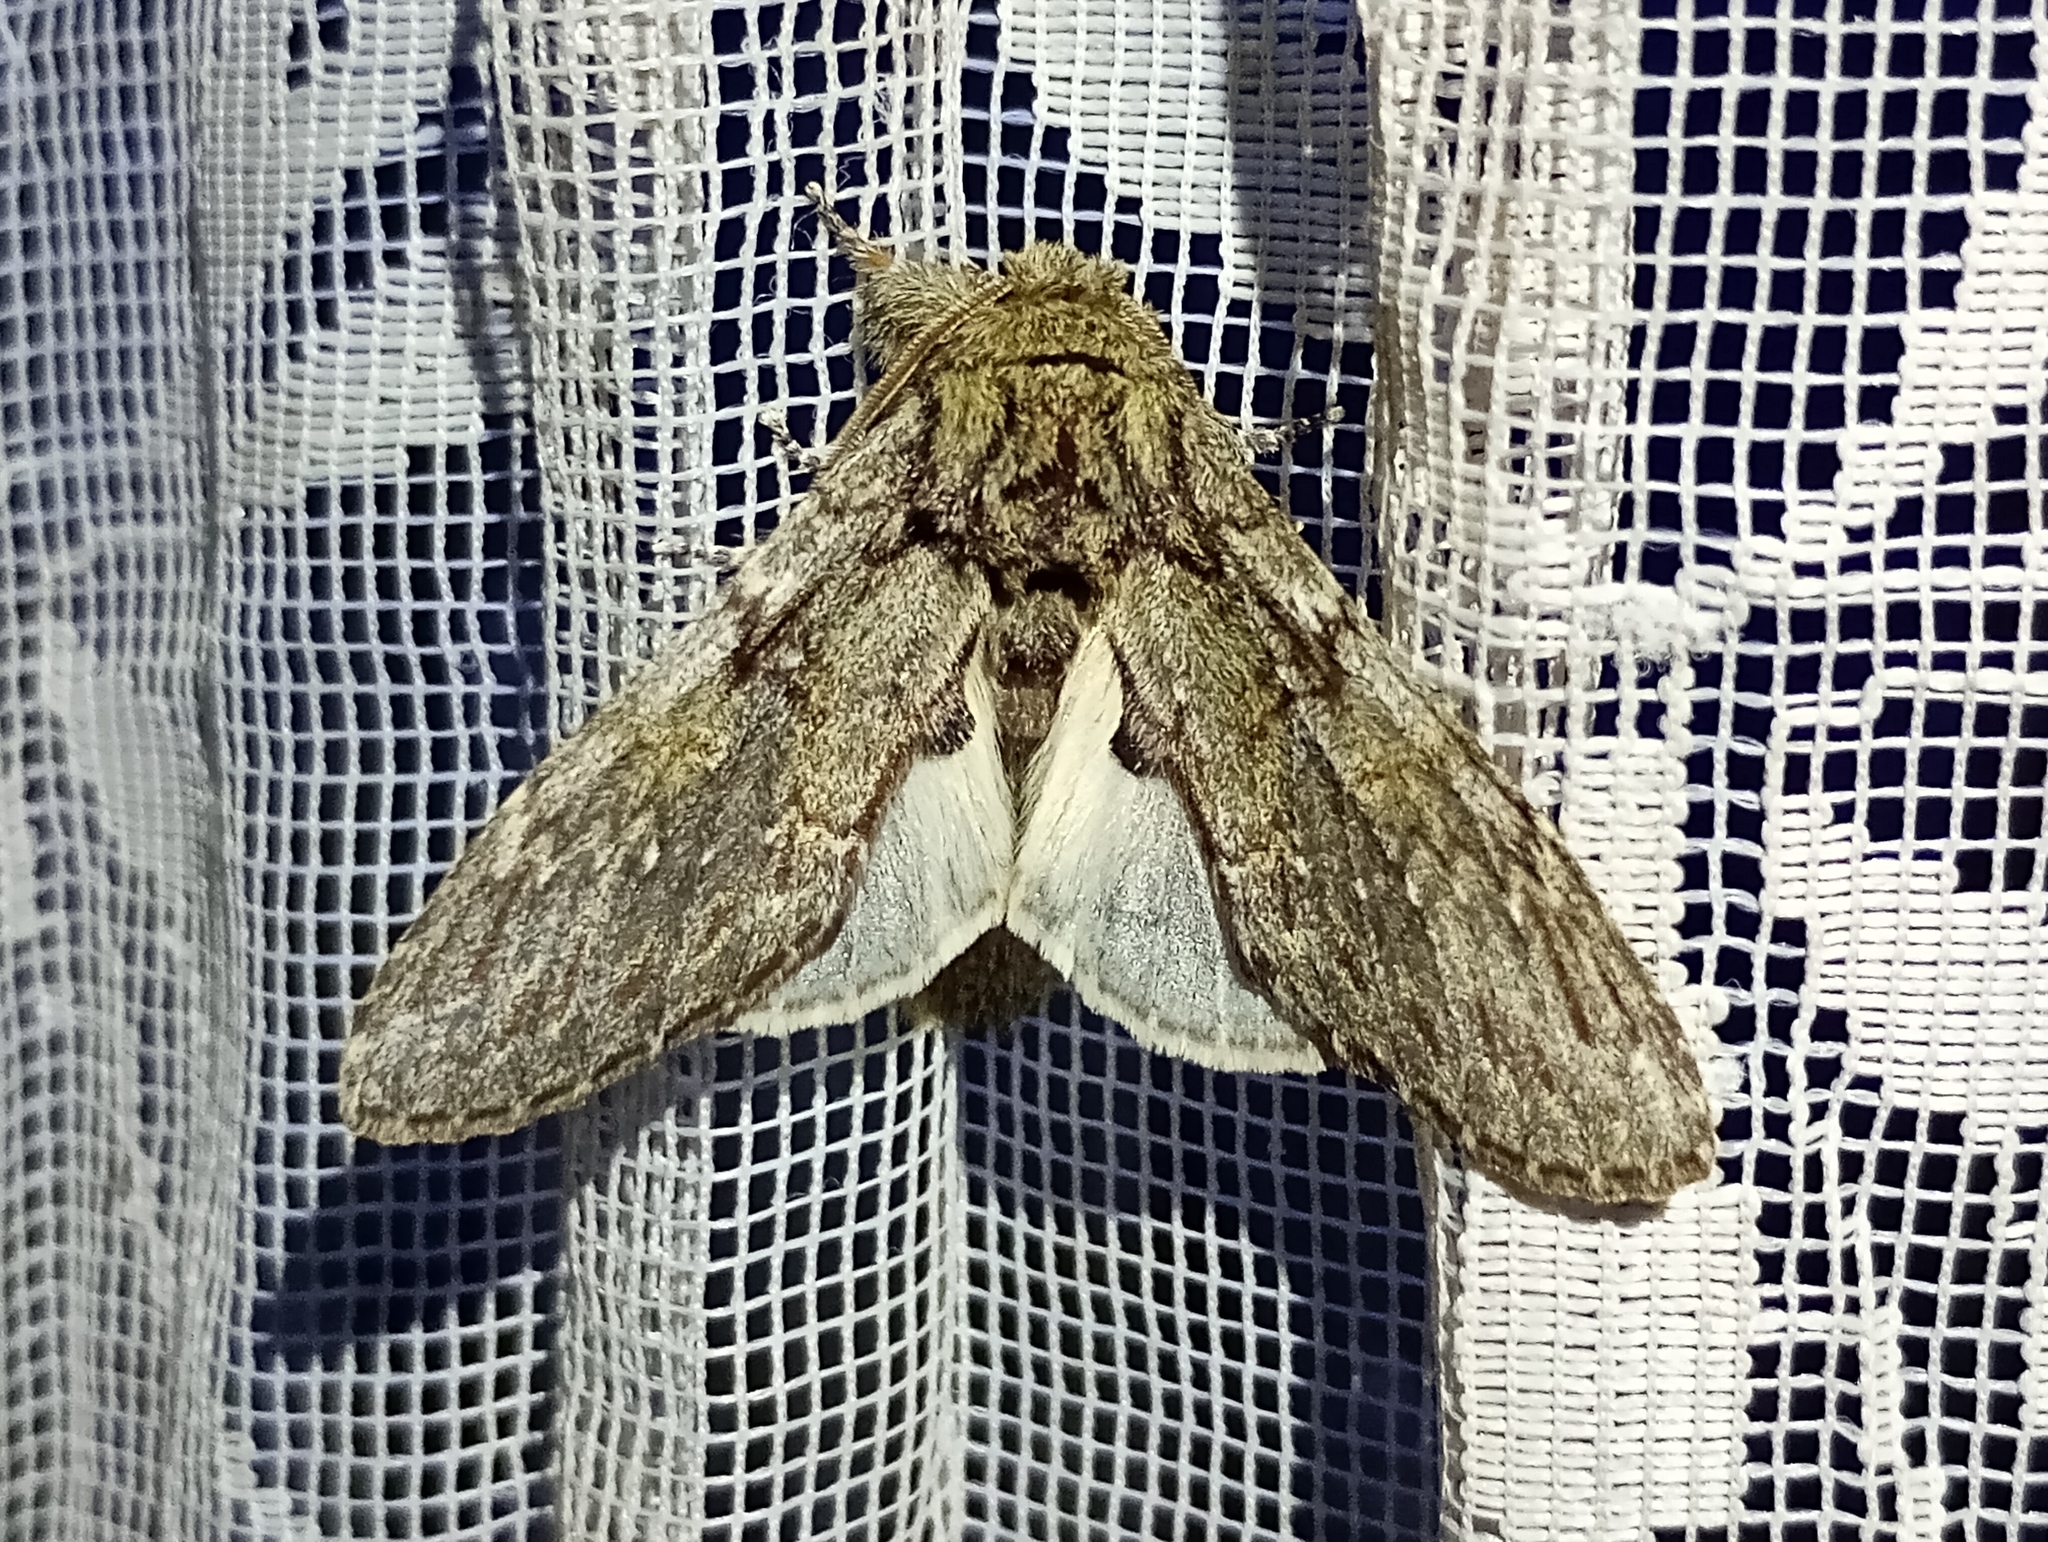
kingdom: Animalia
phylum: Arthropoda
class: Insecta
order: Lepidoptera
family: Notodontidae
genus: Peridea
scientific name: Peridea anceps
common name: Great prominent
